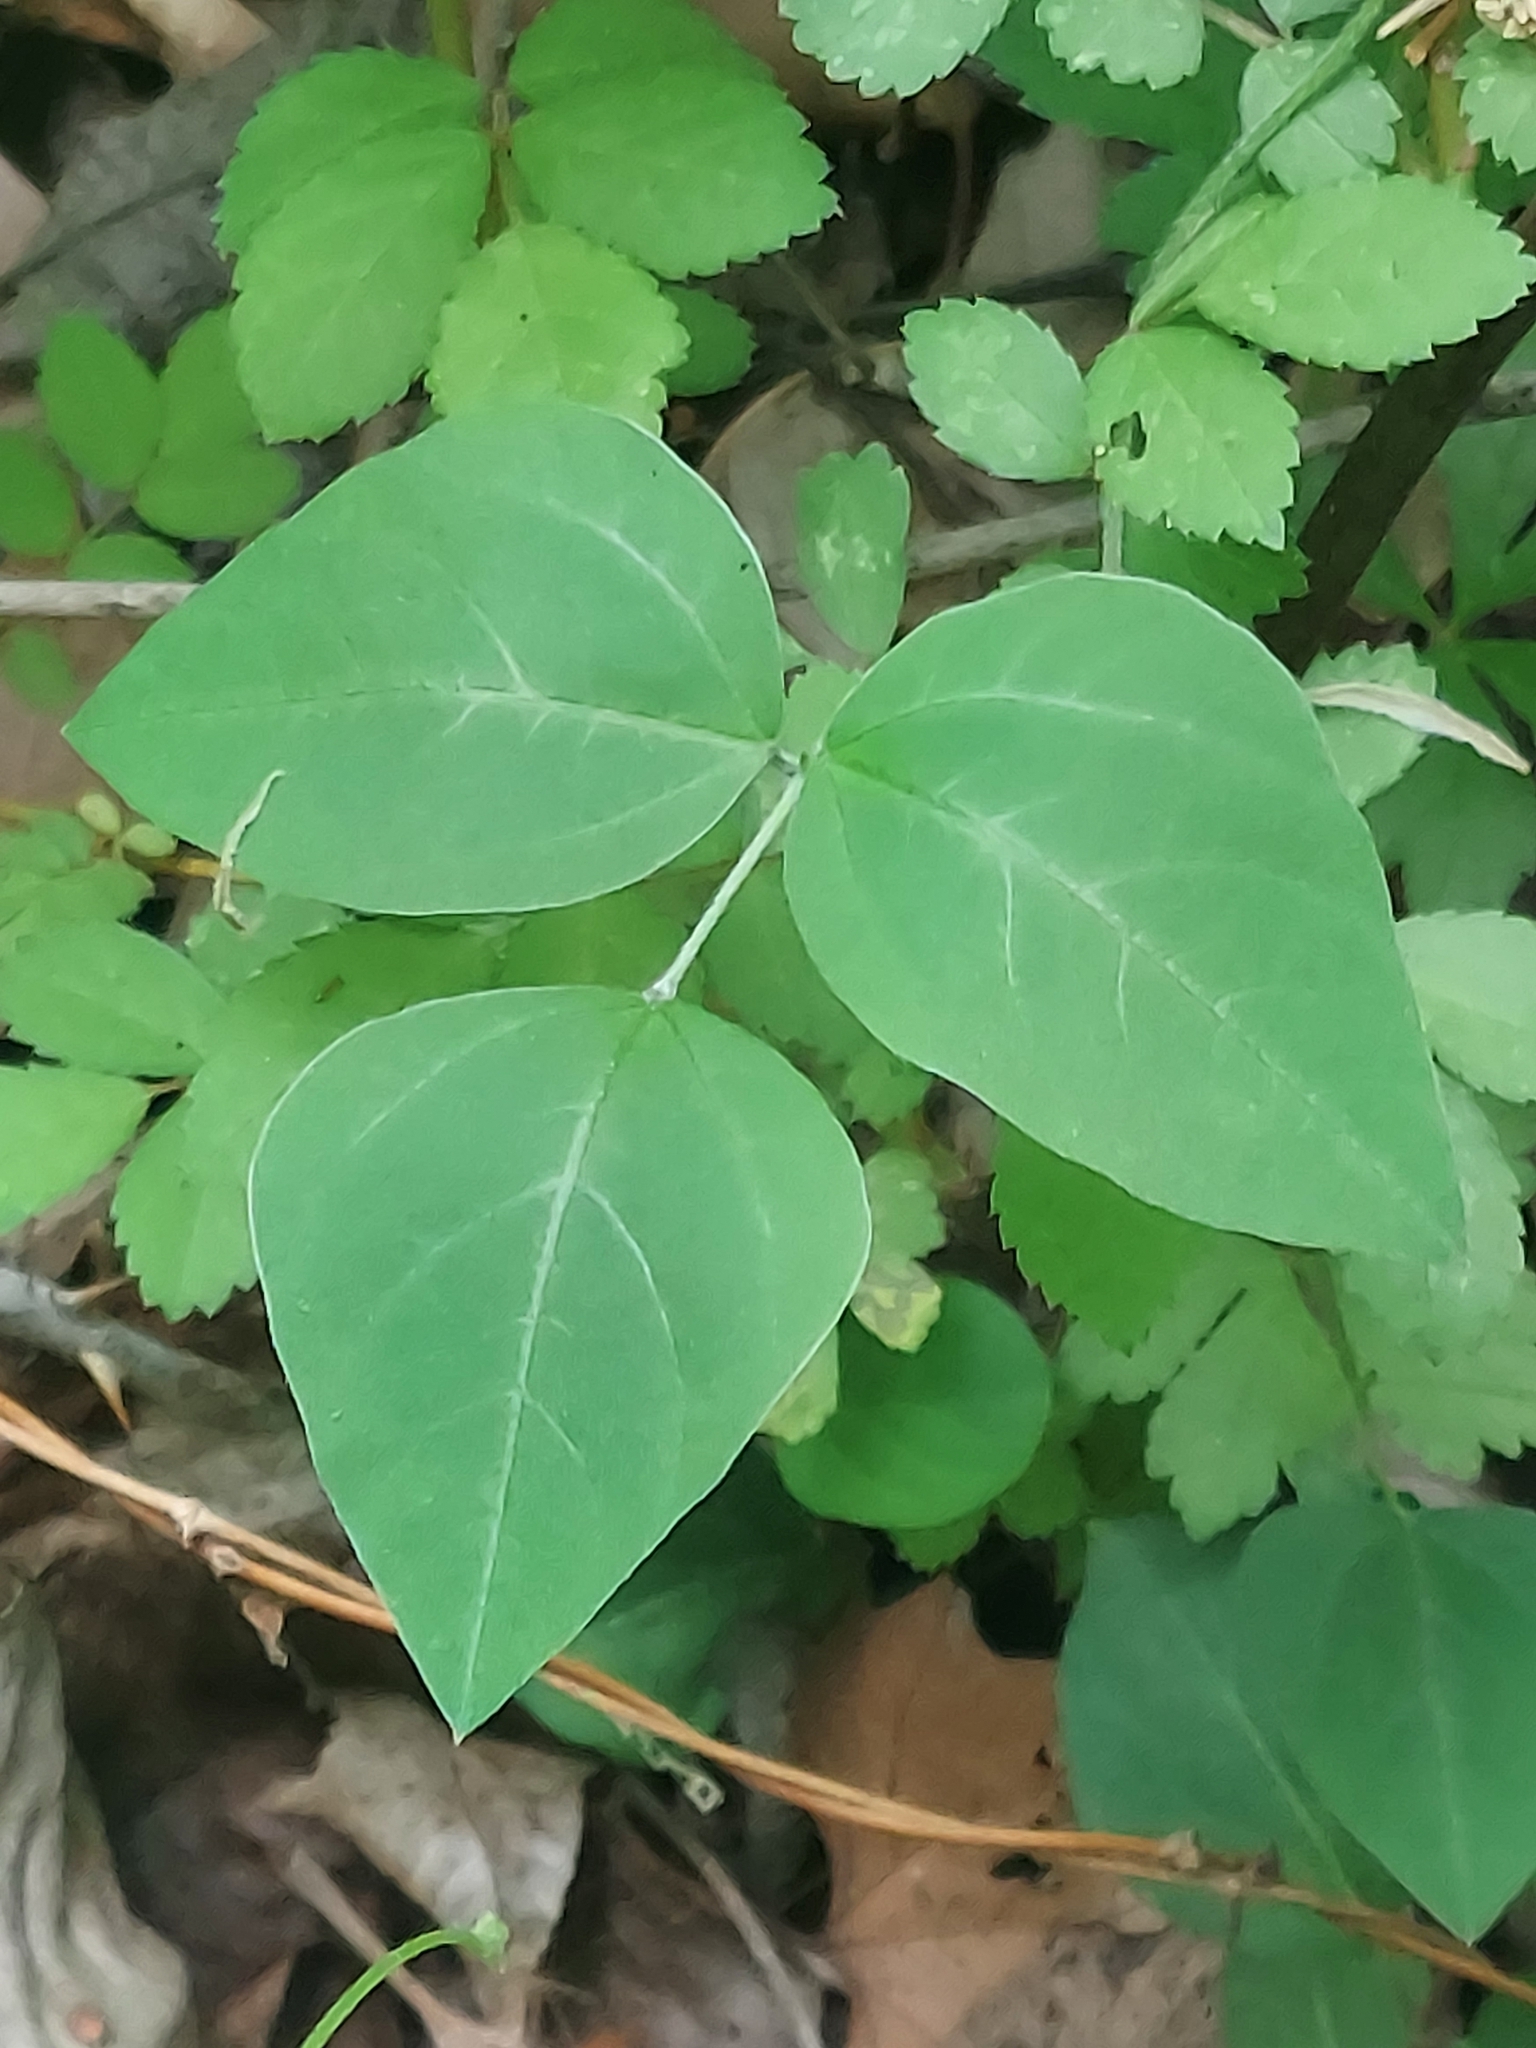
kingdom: Plantae
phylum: Tracheophyta
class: Magnoliopsida
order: Fabales
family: Fabaceae
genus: Amphicarpaea
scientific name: Amphicarpaea bracteata
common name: American hog peanut
